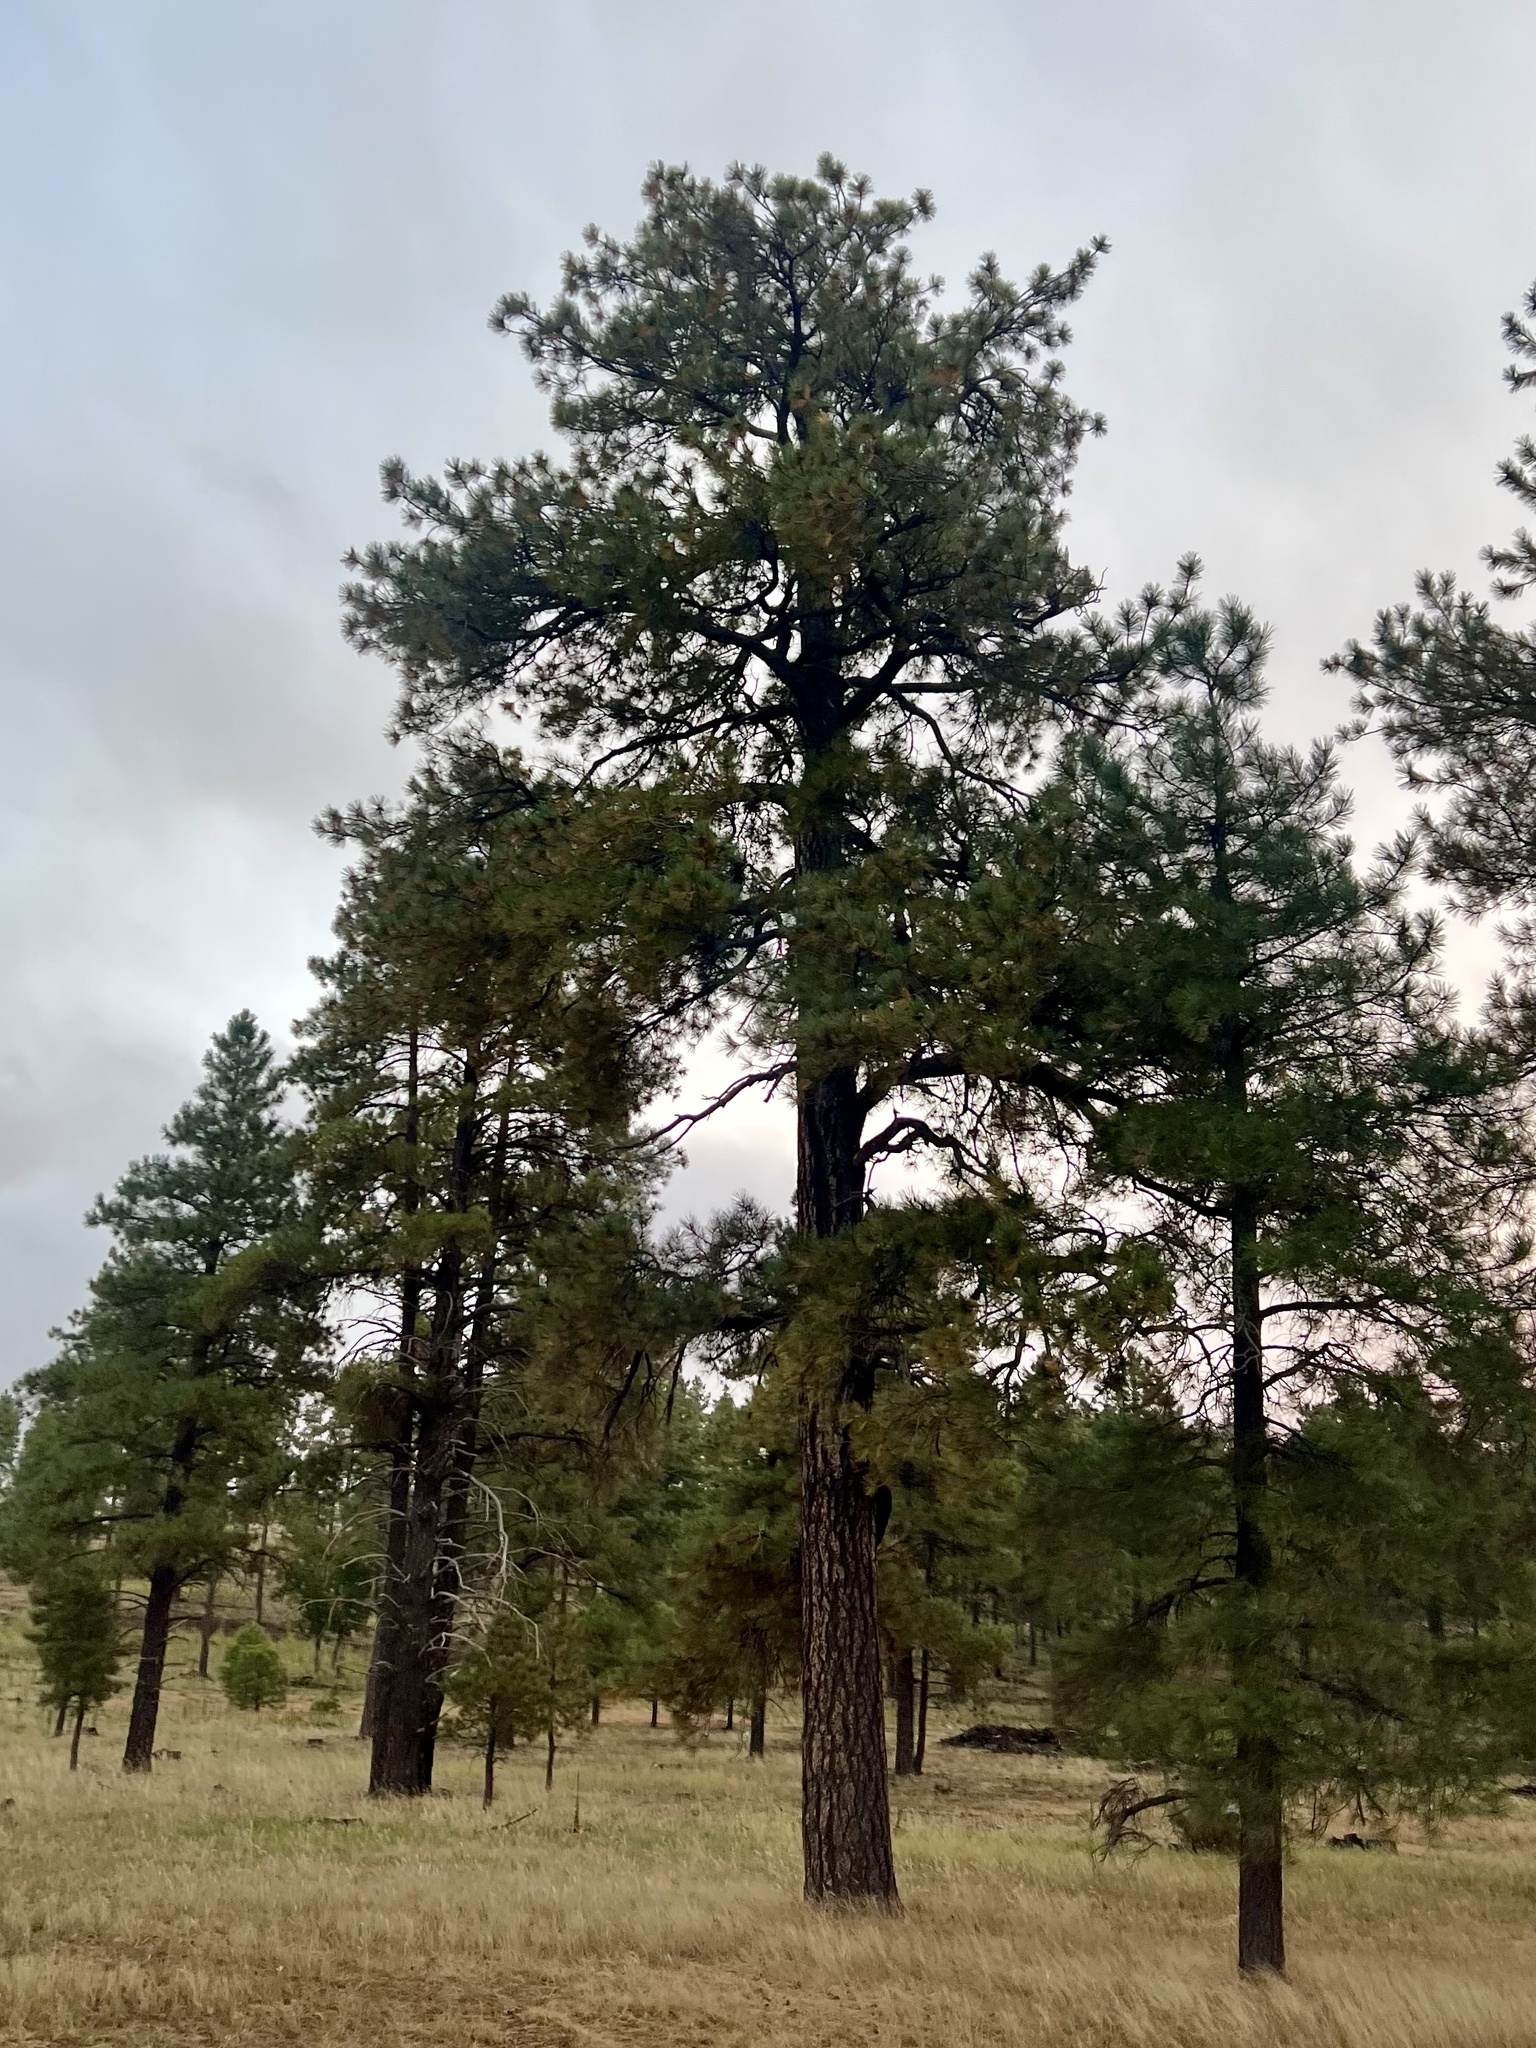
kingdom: Plantae
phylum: Tracheophyta
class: Pinopsida
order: Pinales
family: Pinaceae
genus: Pinus
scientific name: Pinus ponderosa
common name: Western yellow-pine
